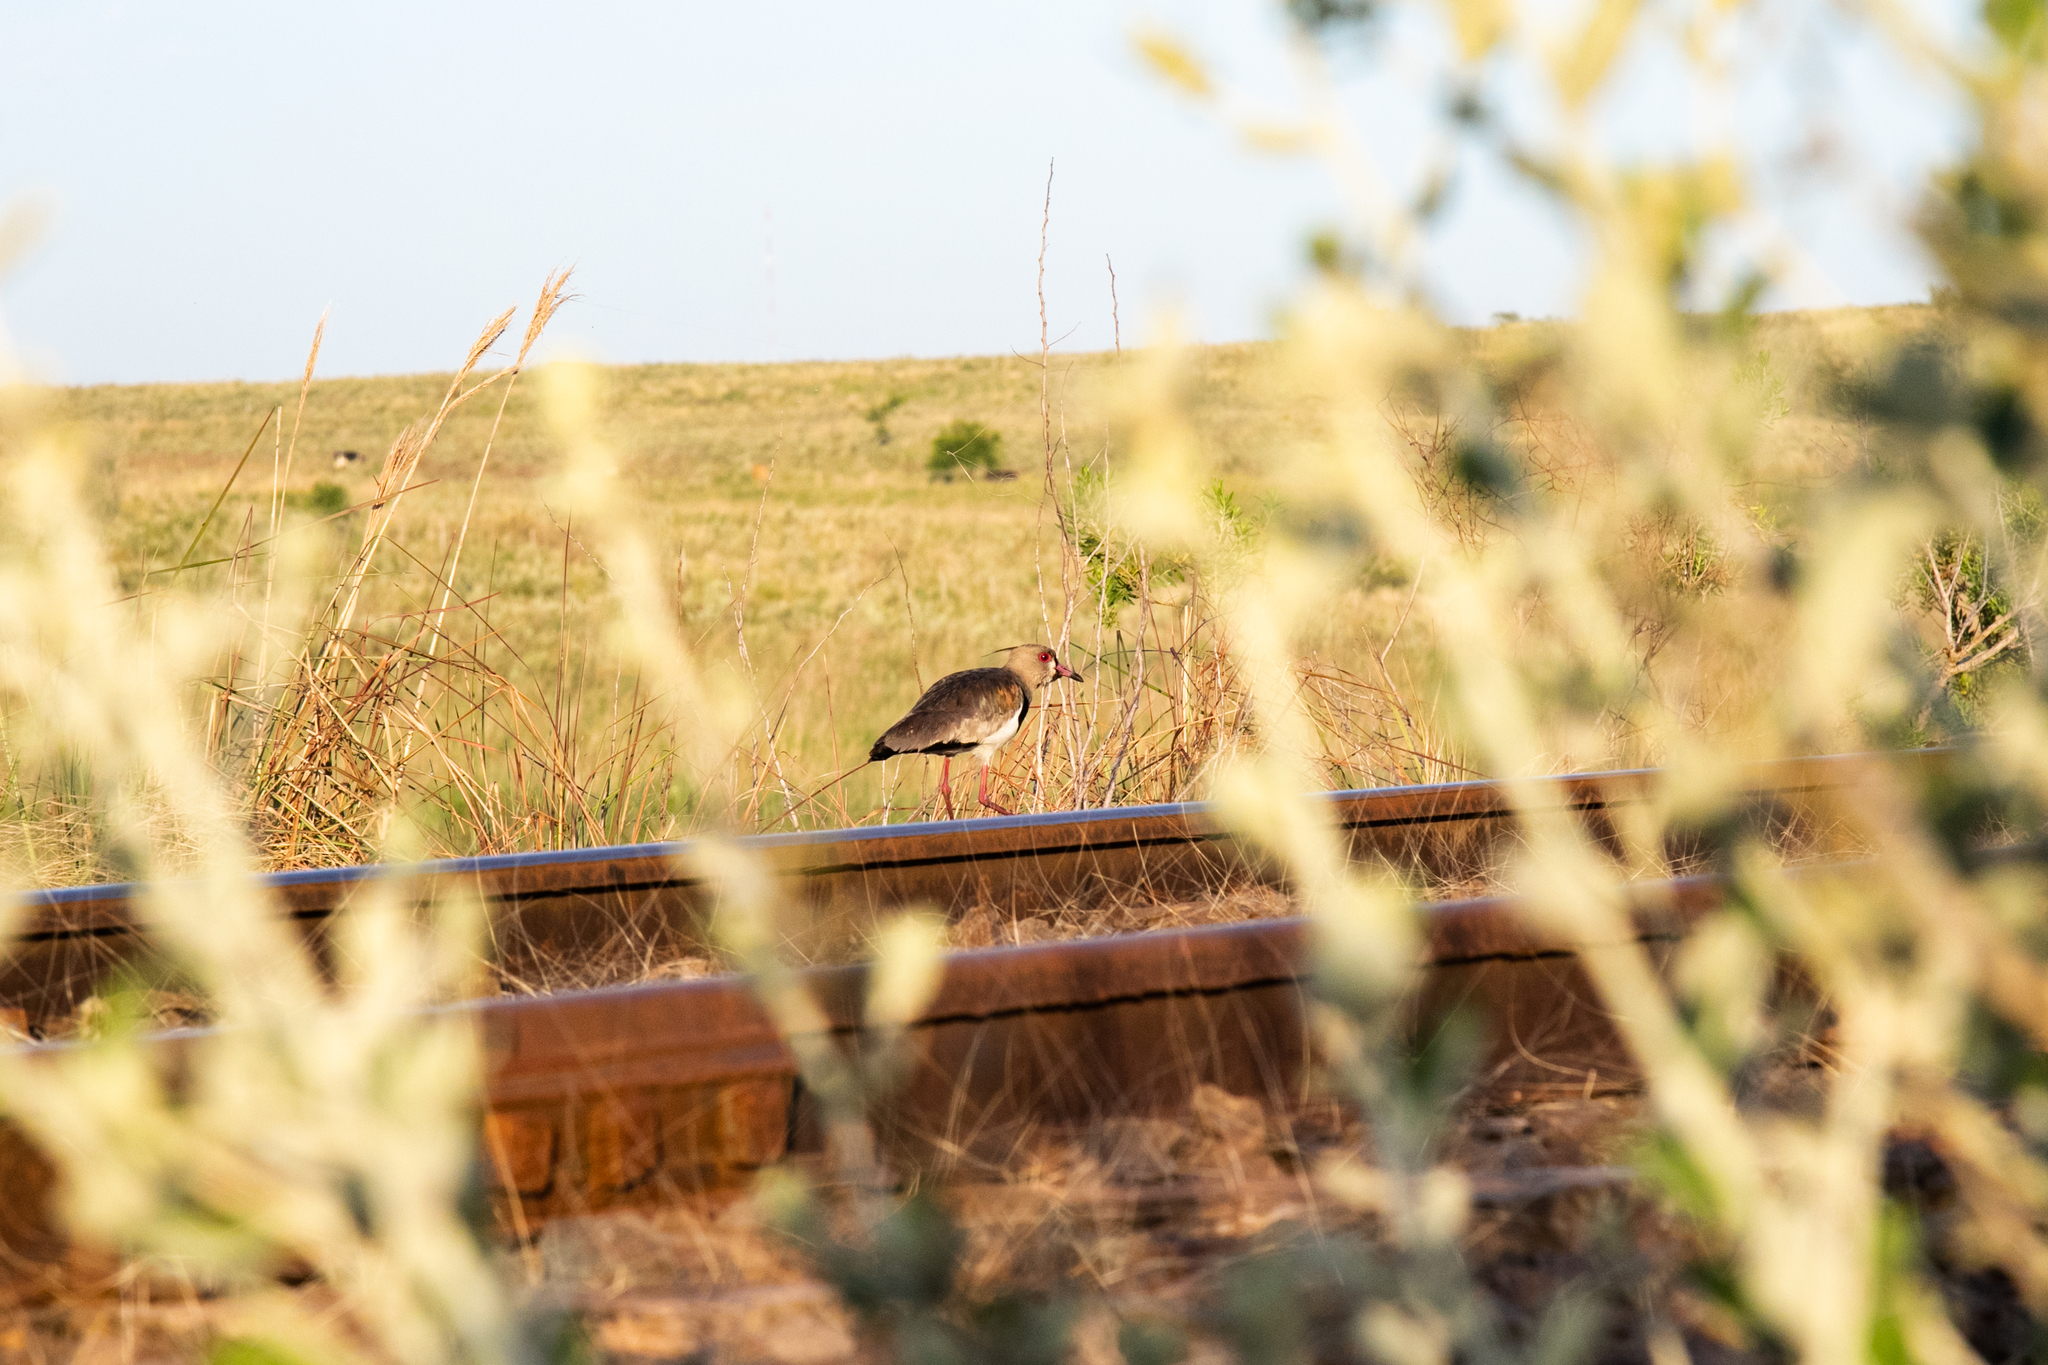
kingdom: Animalia
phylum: Chordata
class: Aves
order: Charadriiformes
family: Charadriidae
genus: Vanellus
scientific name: Vanellus chilensis
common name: Southern lapwing
